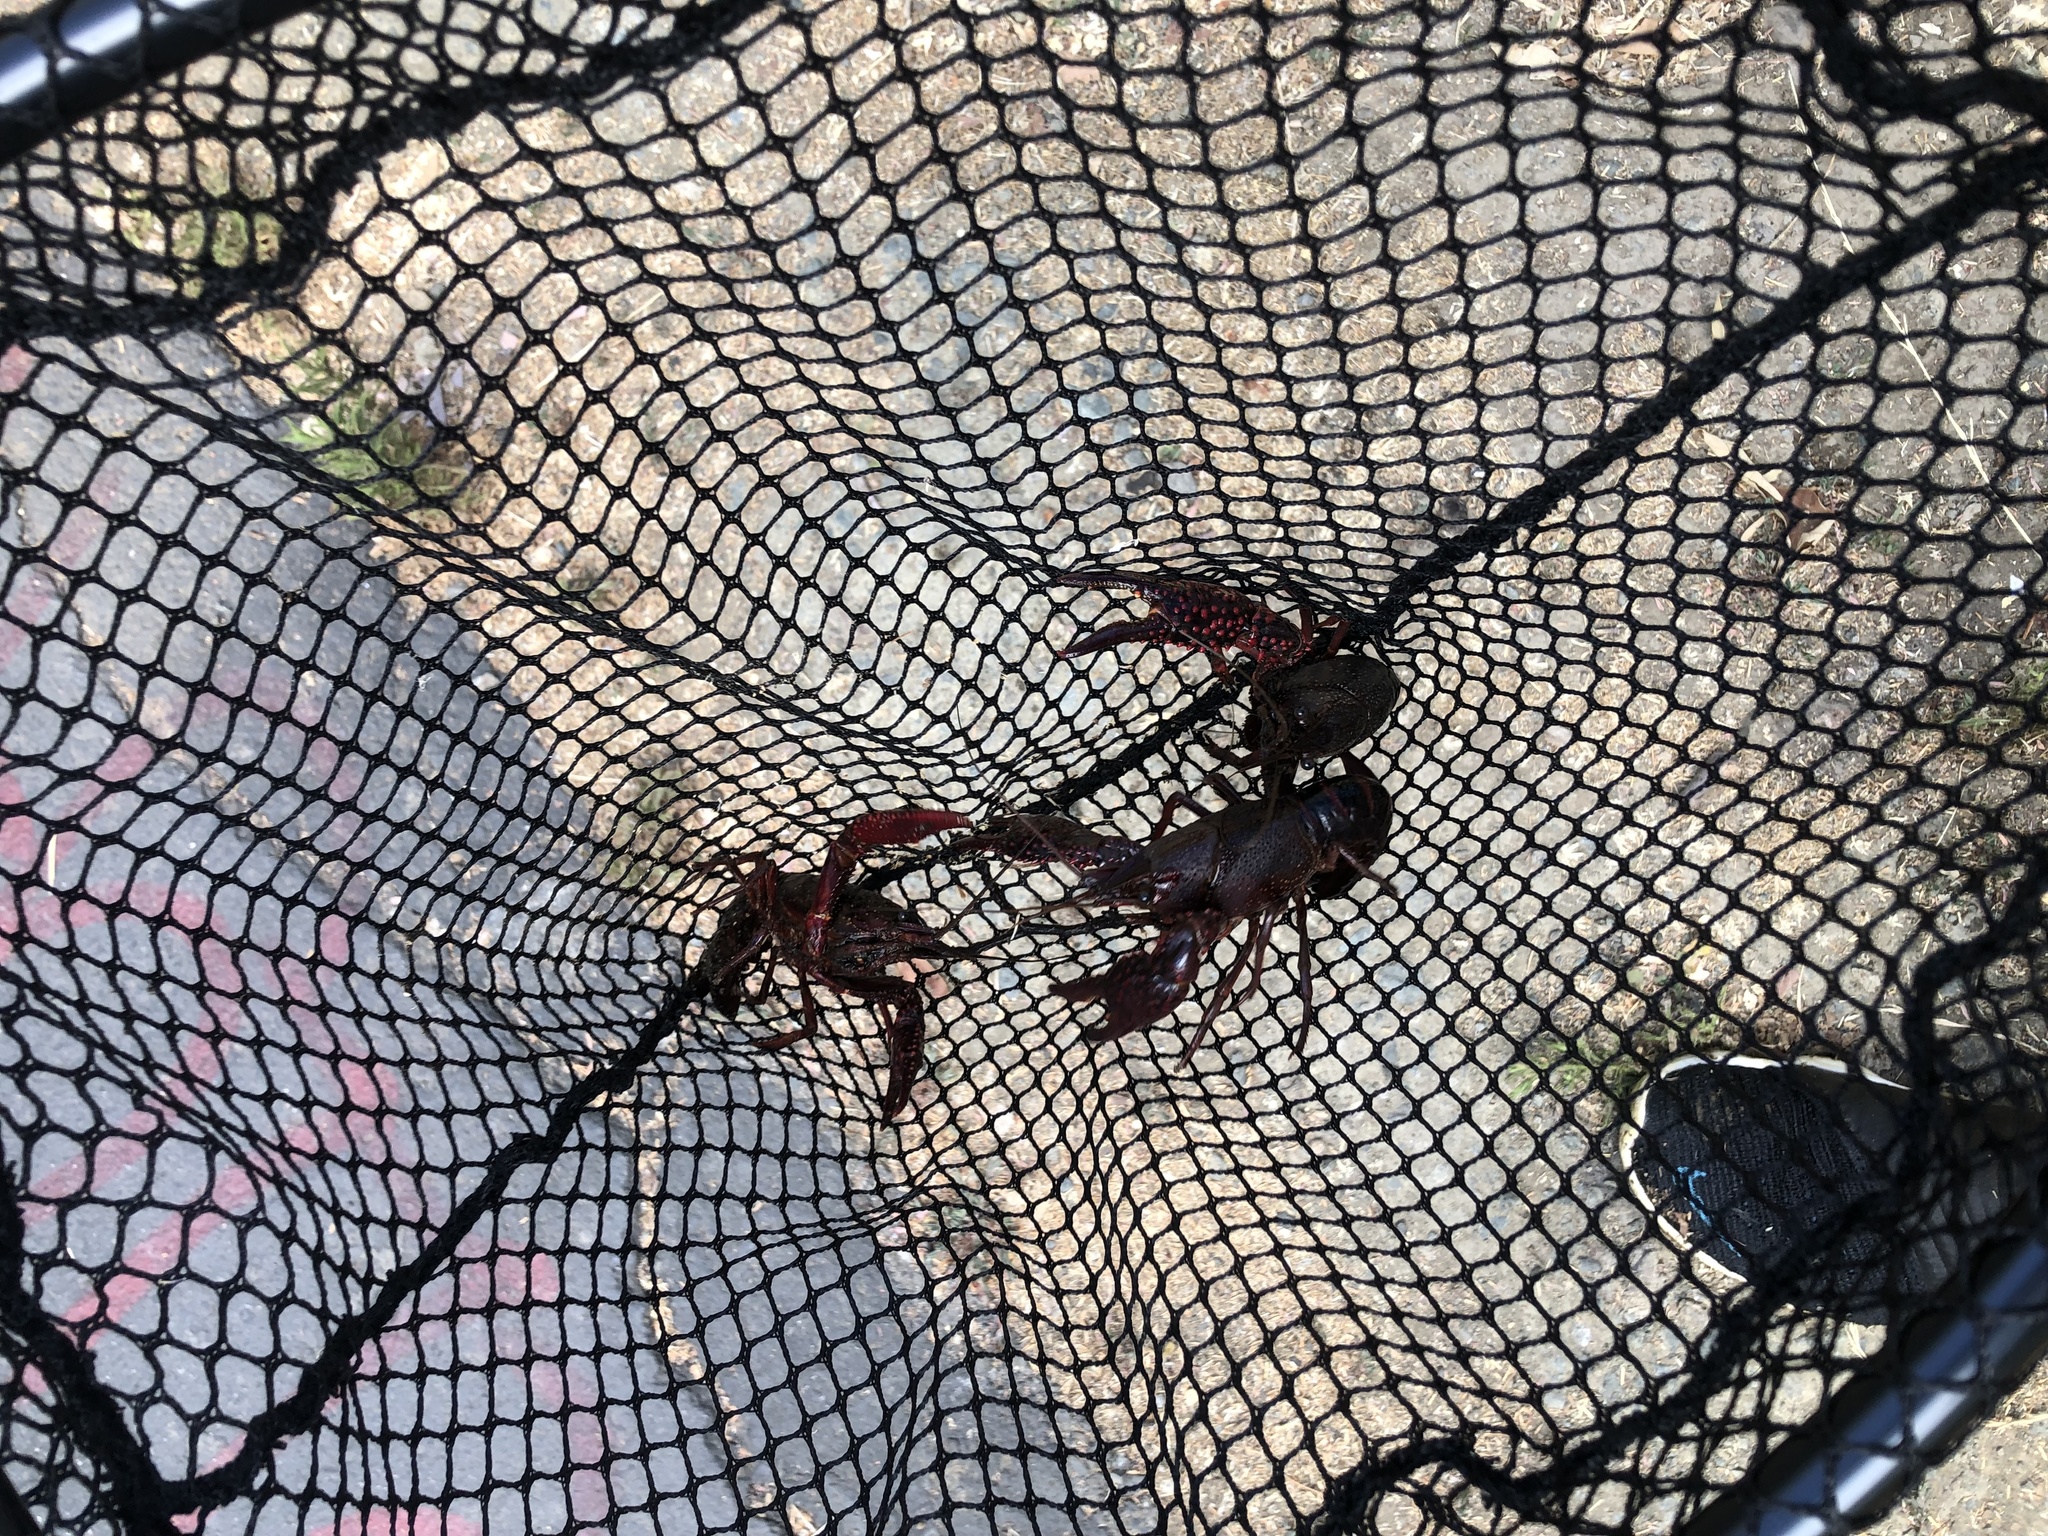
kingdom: Animalia
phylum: Arthropoda
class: Malacostraca
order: Decapoda
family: Cambaridae
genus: Procambarus
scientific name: Procambarus clarkii
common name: Red swamp crayfish
